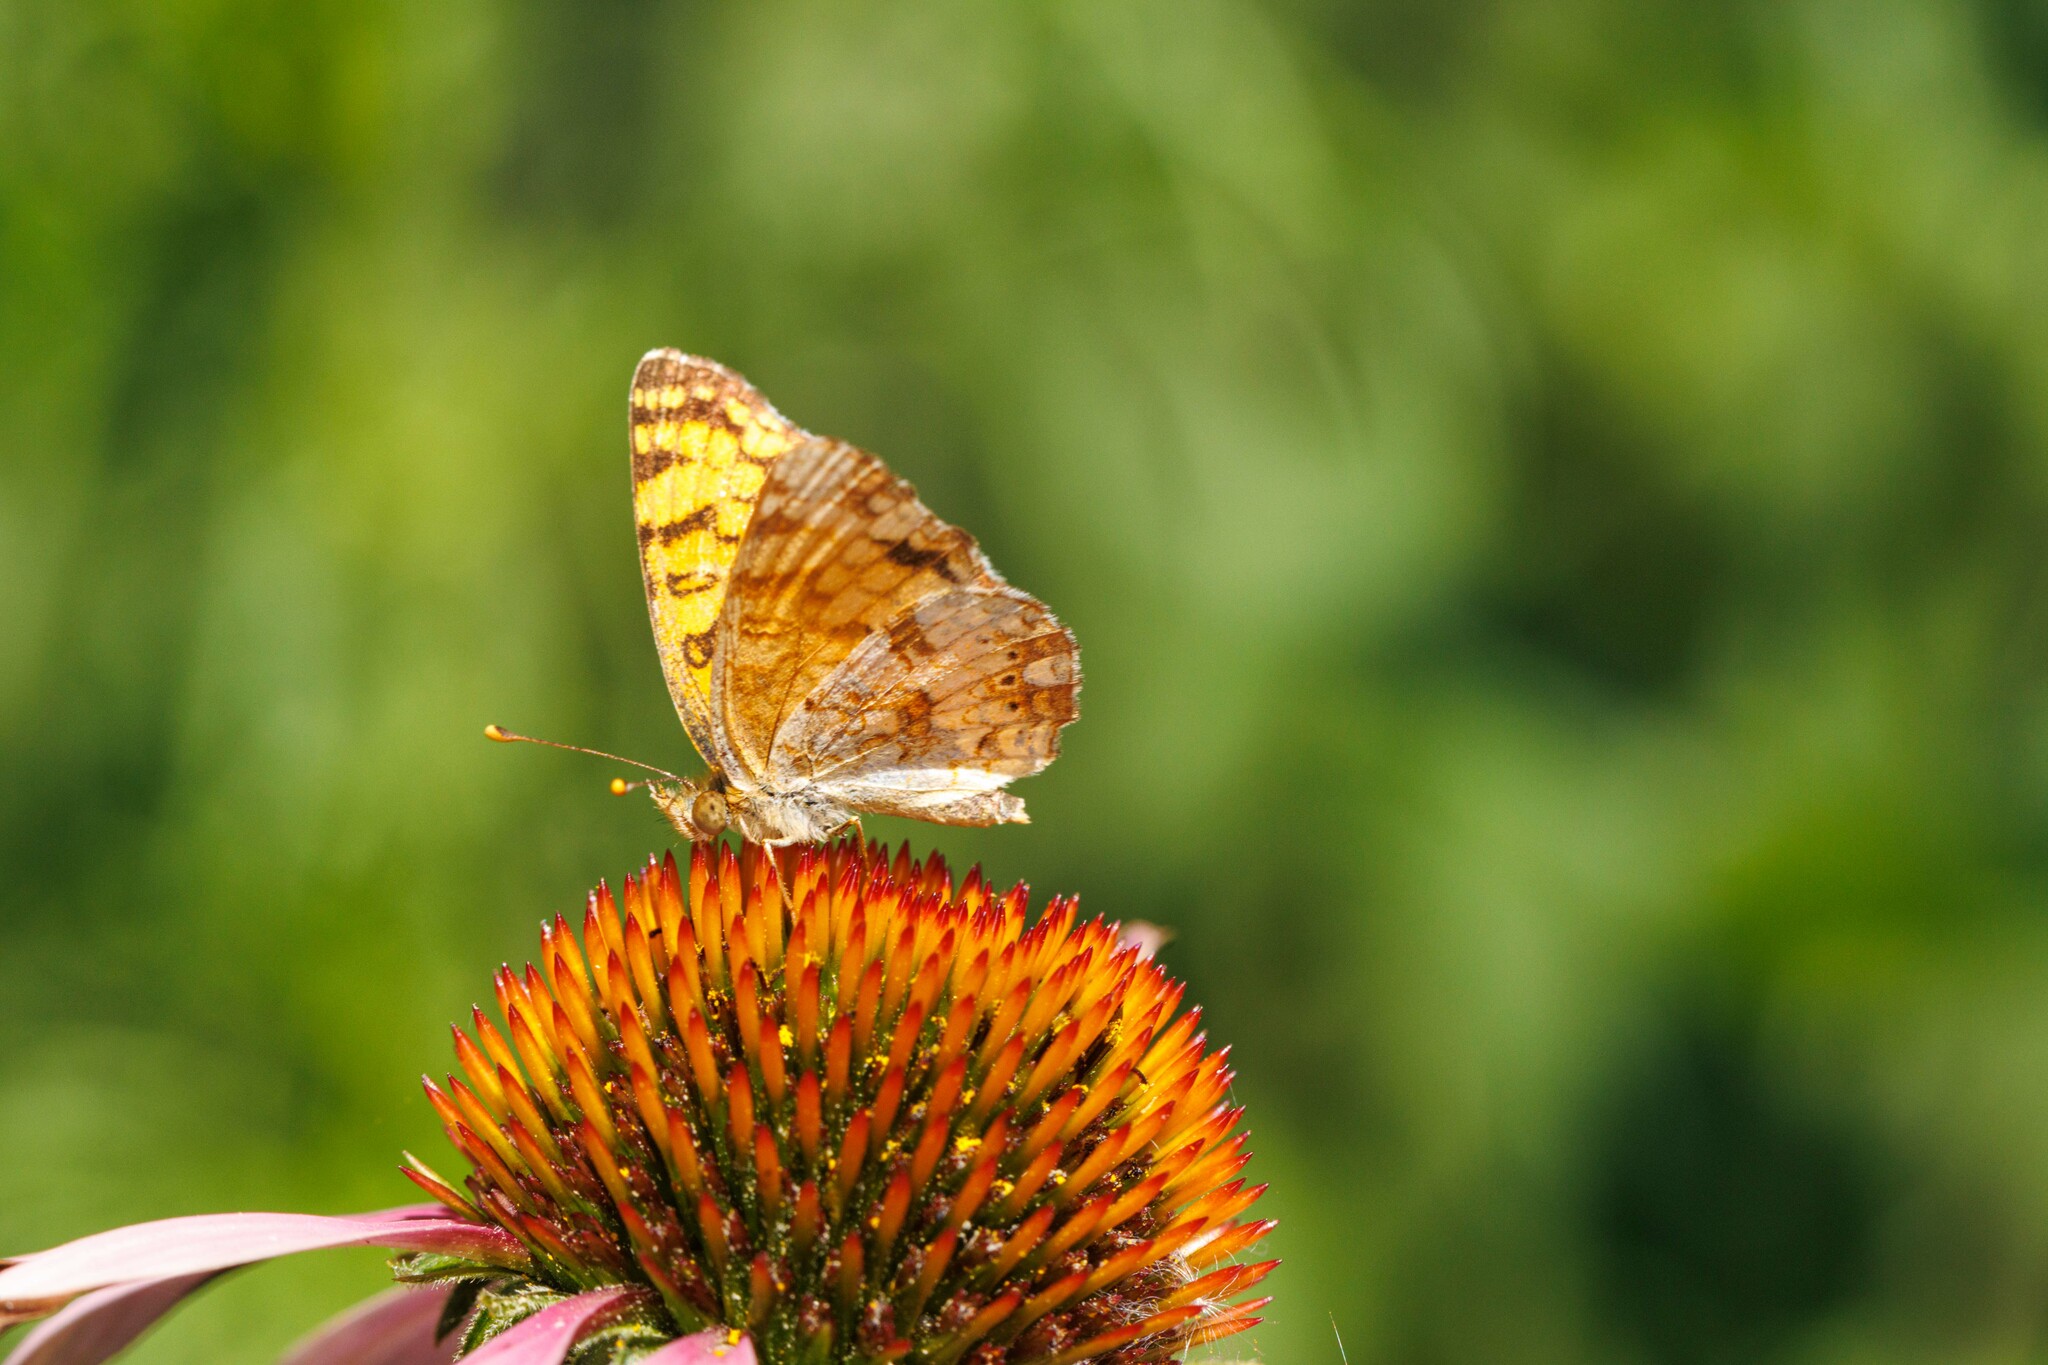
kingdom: Animalia
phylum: Arthropoda
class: Insecta
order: Lepidoptera
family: Nymphalidae
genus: Eresia
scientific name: Eresia aveyrona
